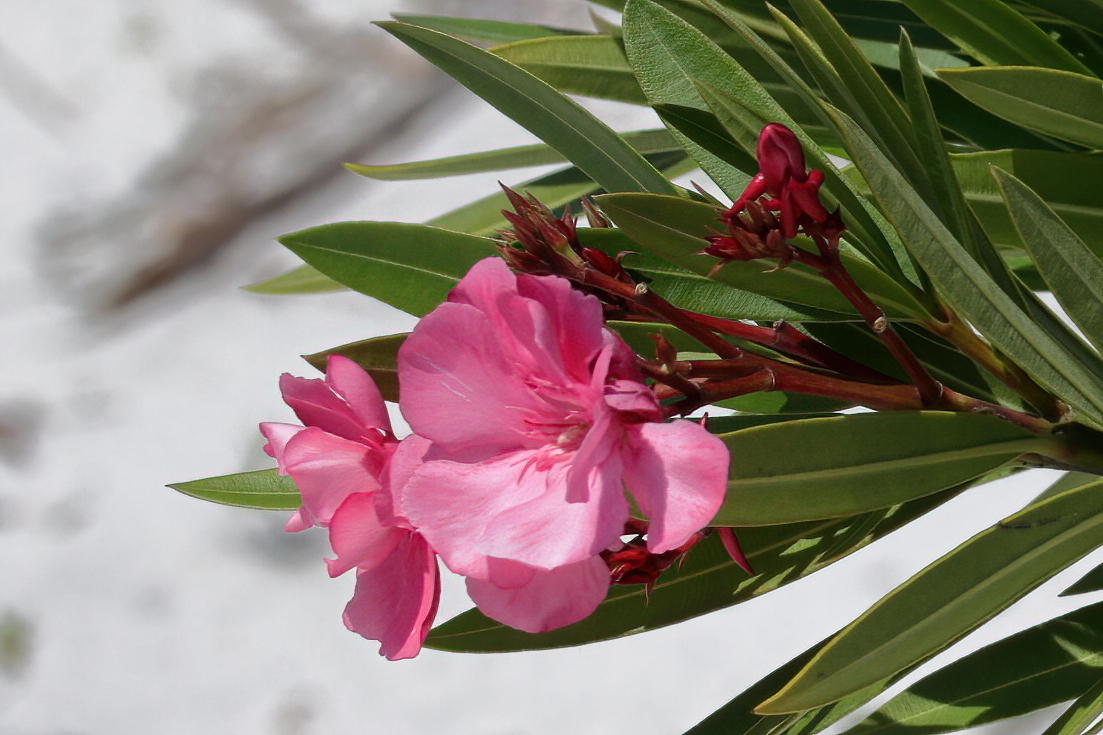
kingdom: Plantae
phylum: Tracheophyta
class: Magnoliopsida
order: Gentianales
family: Apocynaceae
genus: Nerium
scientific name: Nerium oleander
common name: Oleander
